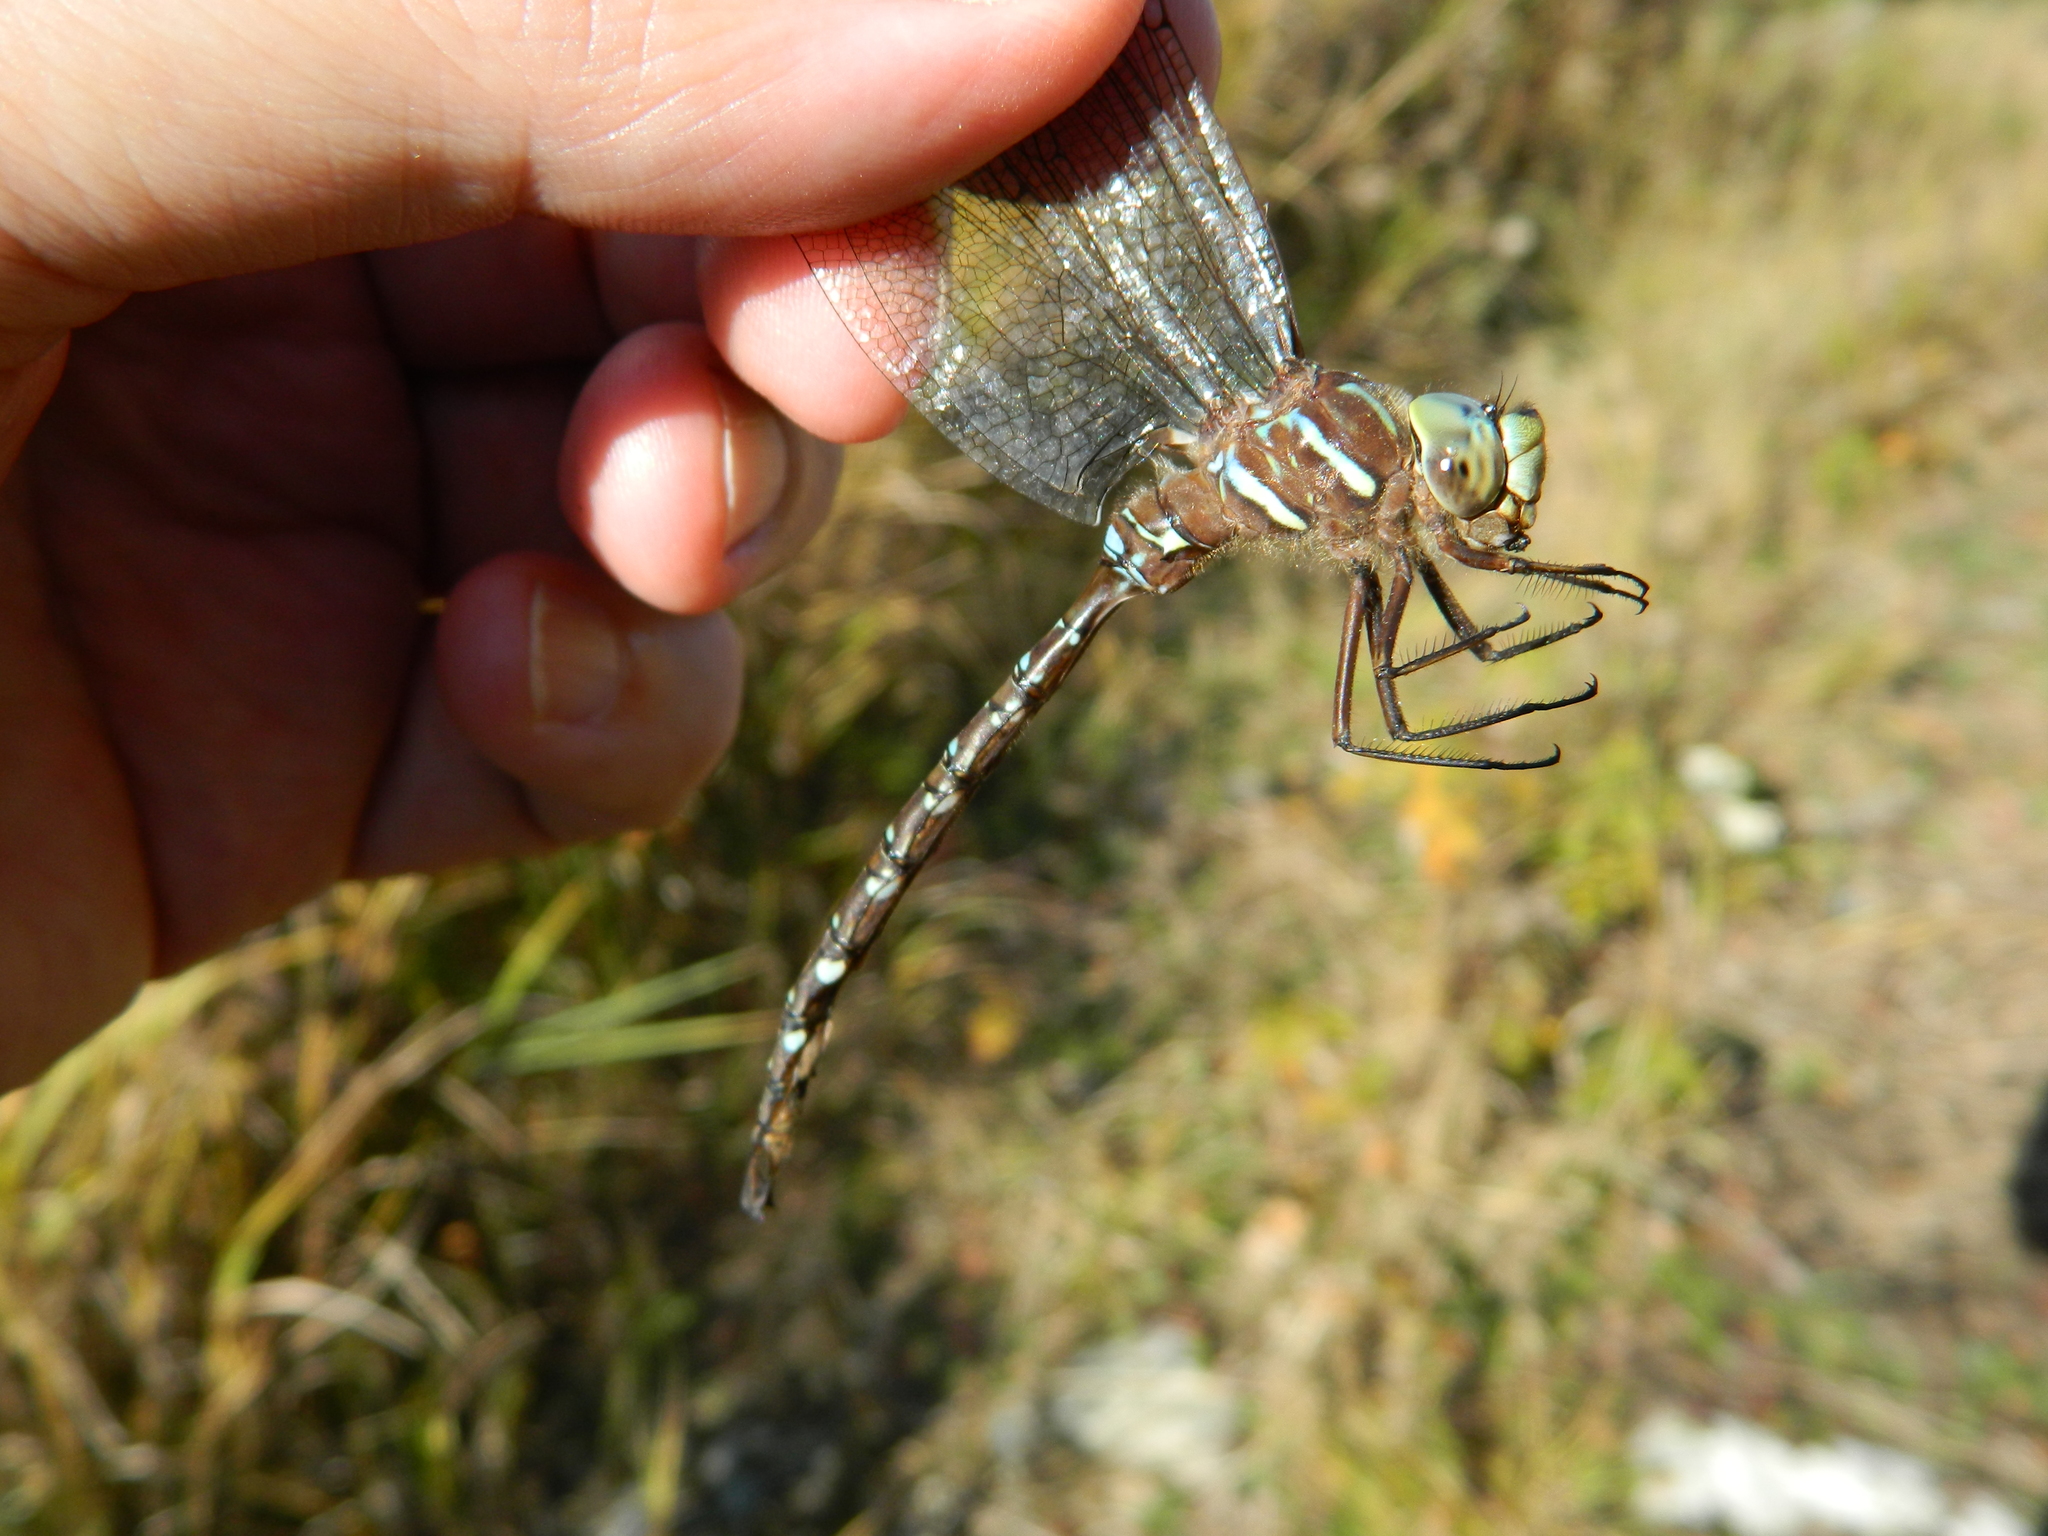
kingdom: Animalia
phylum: Arthropoda
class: Insecta
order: Odonata
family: Aeshnidae
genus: Aeshna
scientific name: Aeshna umbrosa
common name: Shadow darner
